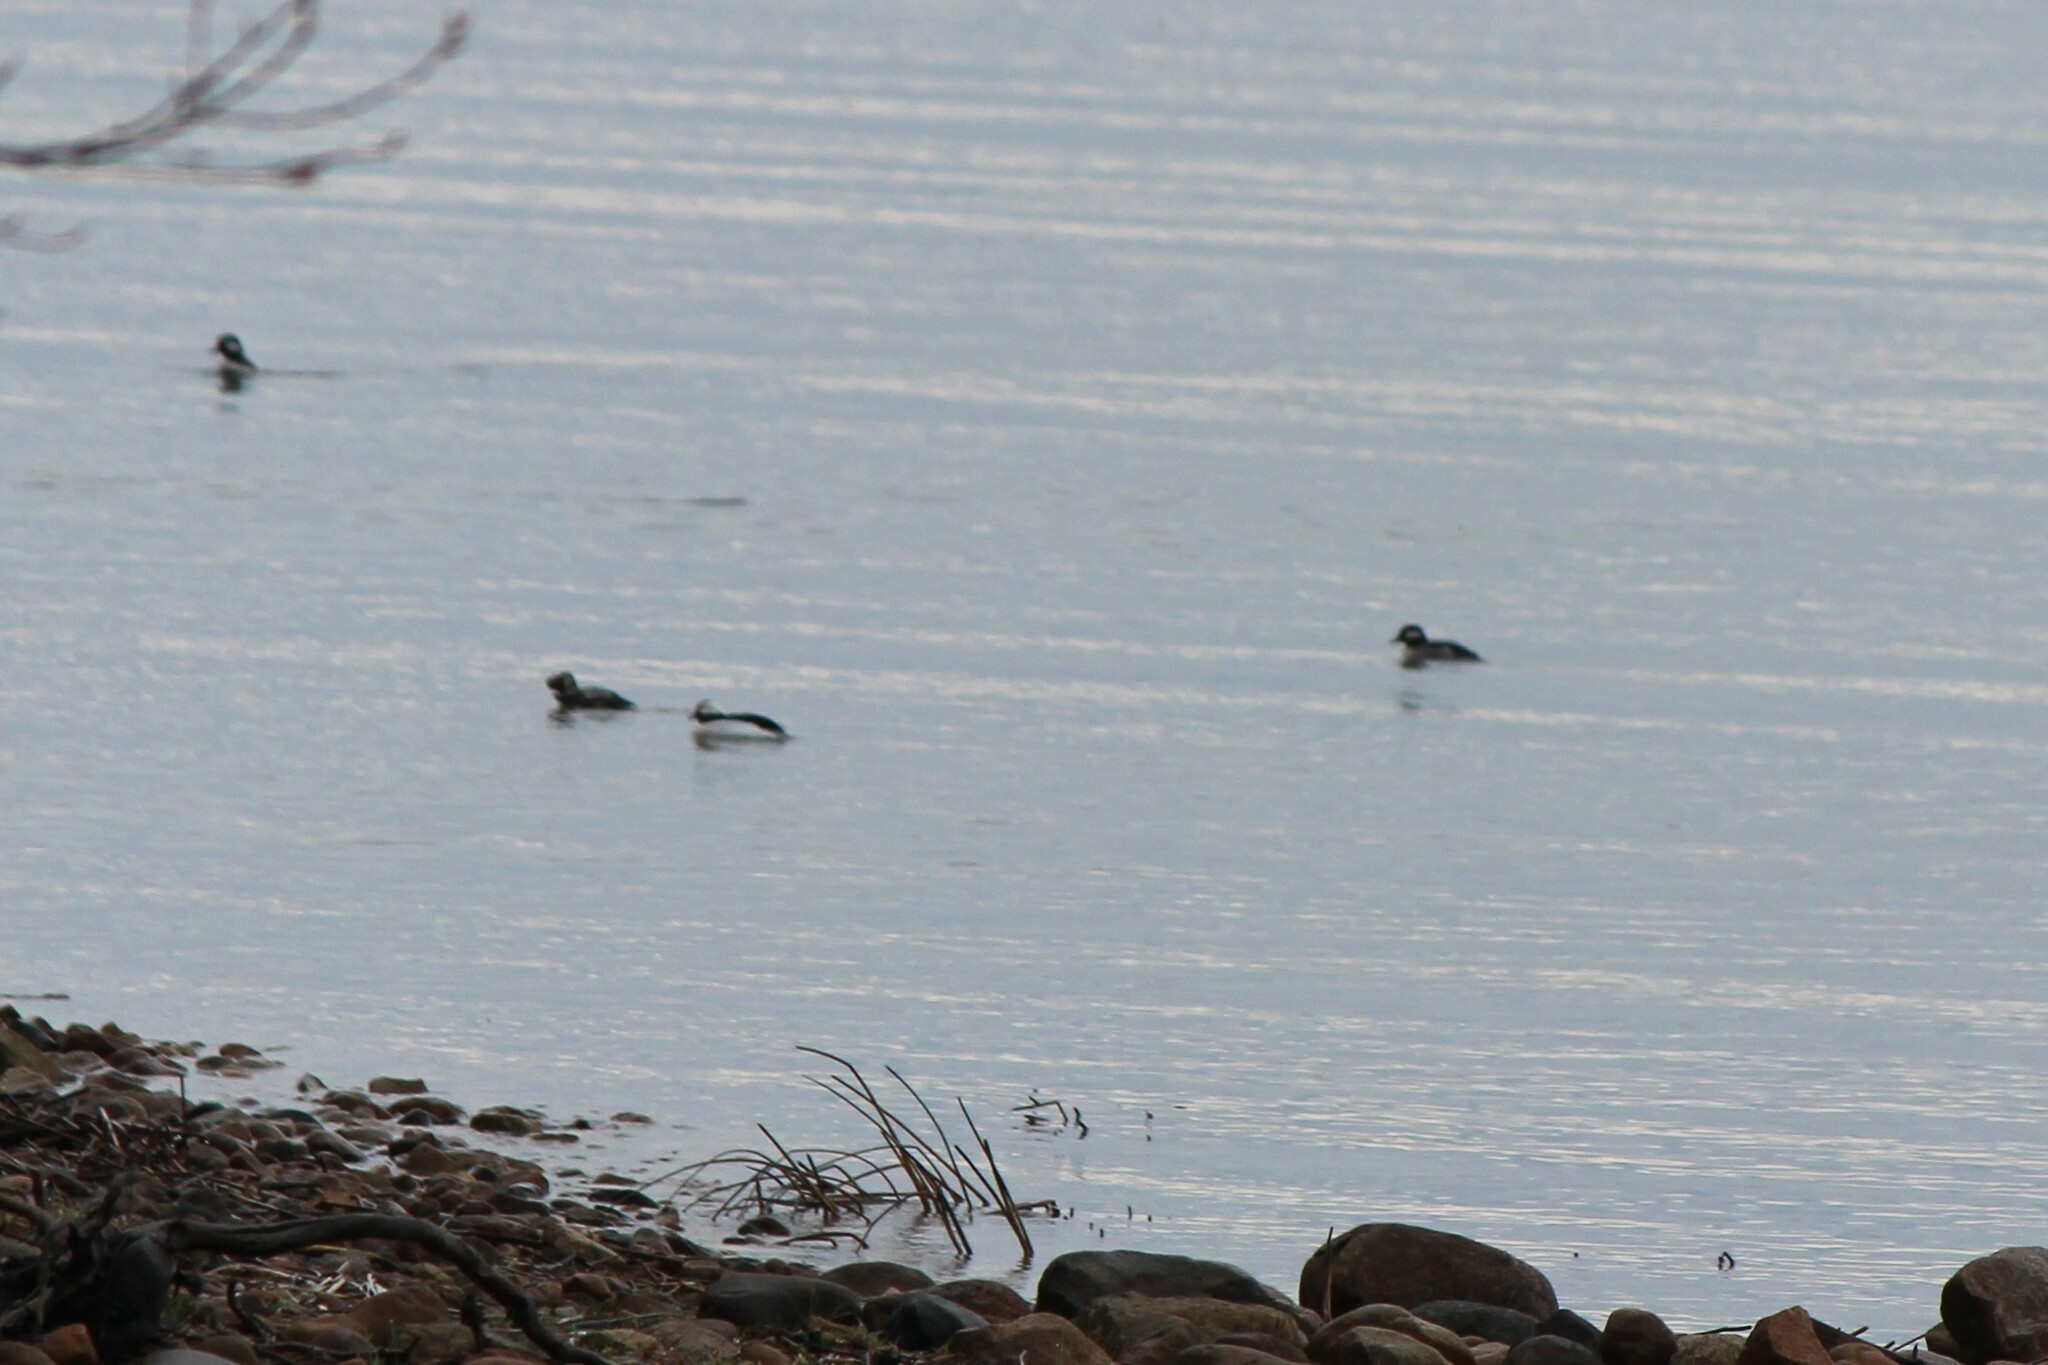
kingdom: Animalia
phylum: Chordata
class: Aves
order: Anseriformes
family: Anatidae
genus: Bucephala
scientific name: Bucephala albeola
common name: Bufflehead
